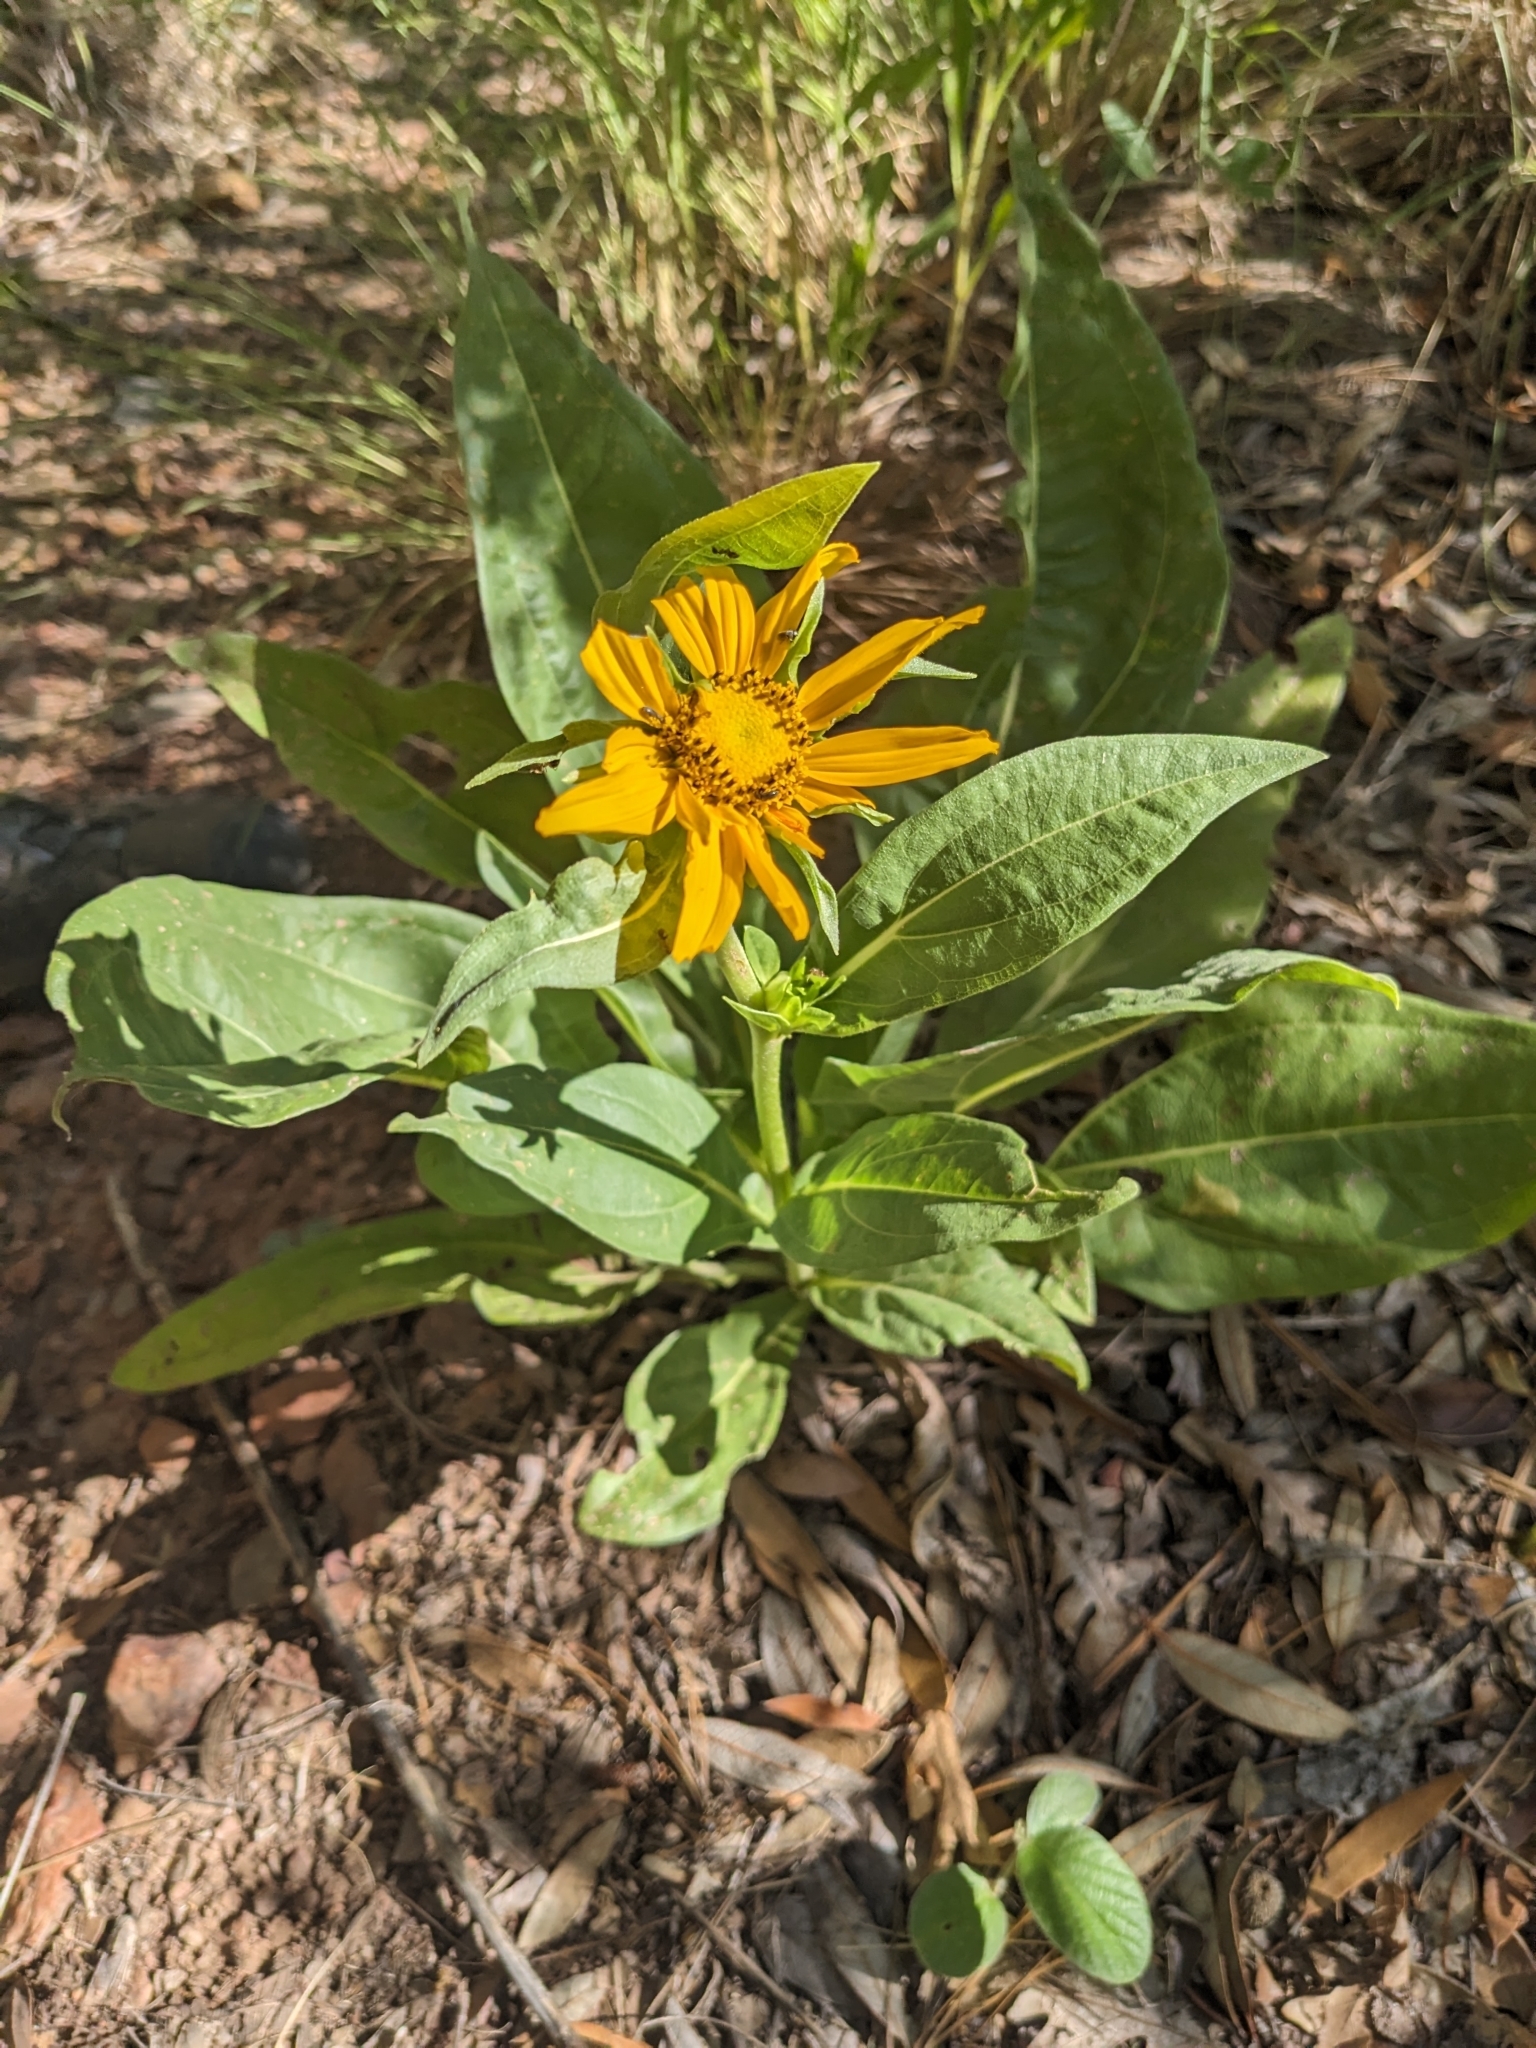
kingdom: Plantae
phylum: Tracheophyta
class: Magnoliopsida
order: Asterales
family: Asteraceae
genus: Helianthella
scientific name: Helianthella quinquenervis
